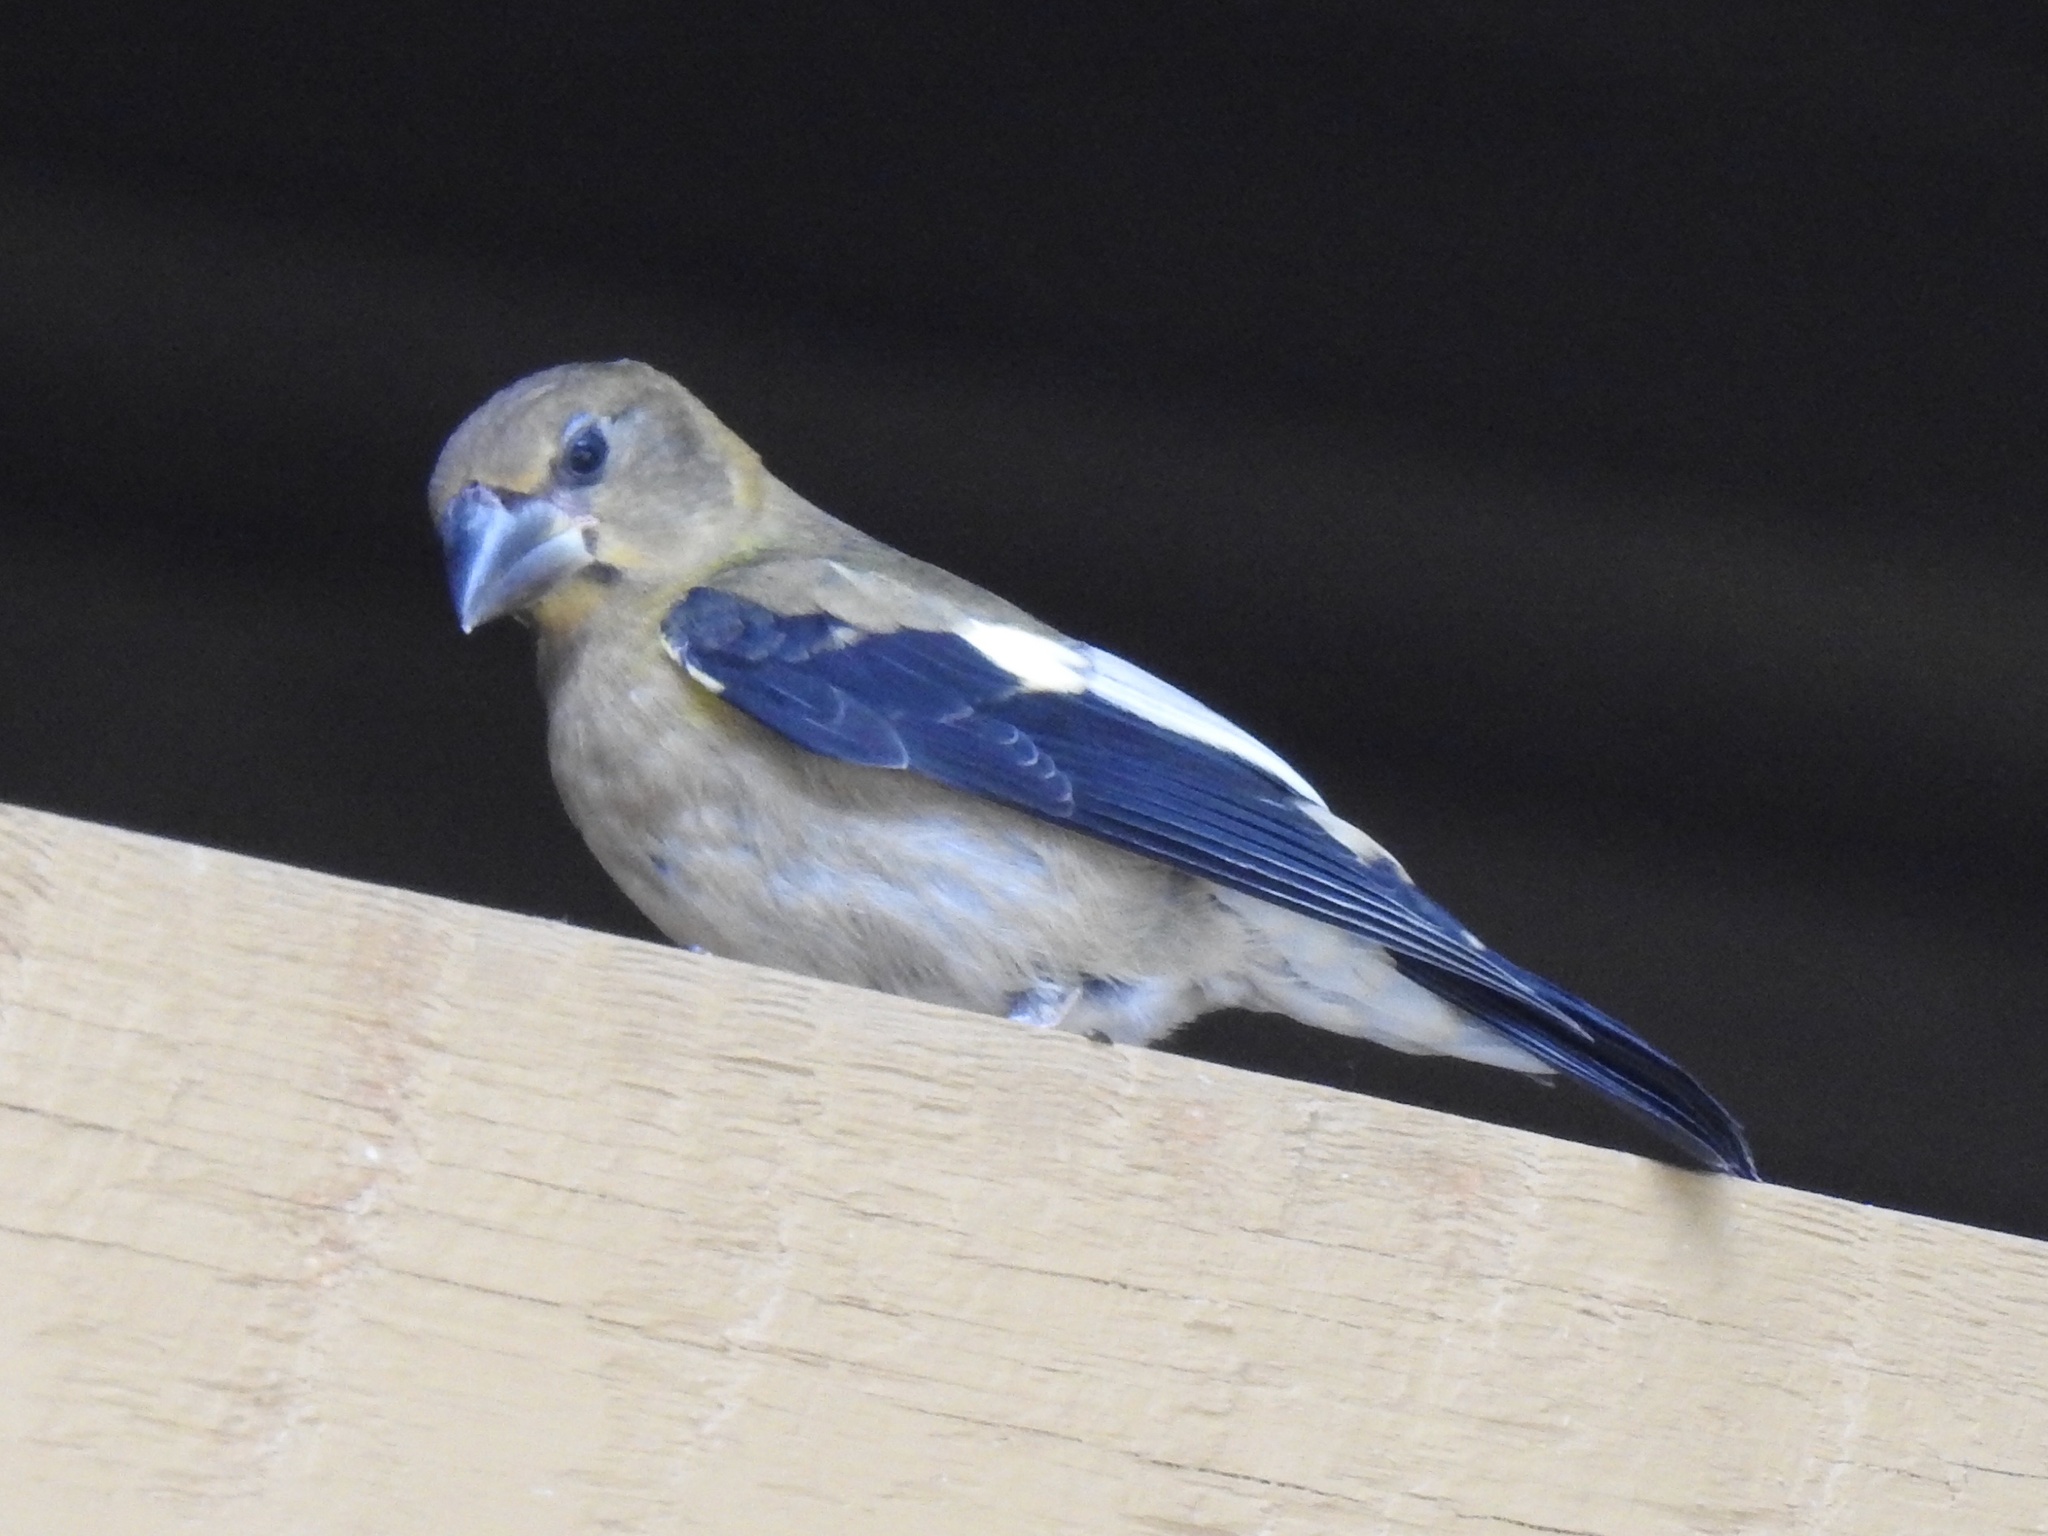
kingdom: Animalia
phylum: Chordata
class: Aves
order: Passeriformes
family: Fringillidae
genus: Hesperiphona
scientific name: Hesperiphona vespertina
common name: Evening grosbeak
